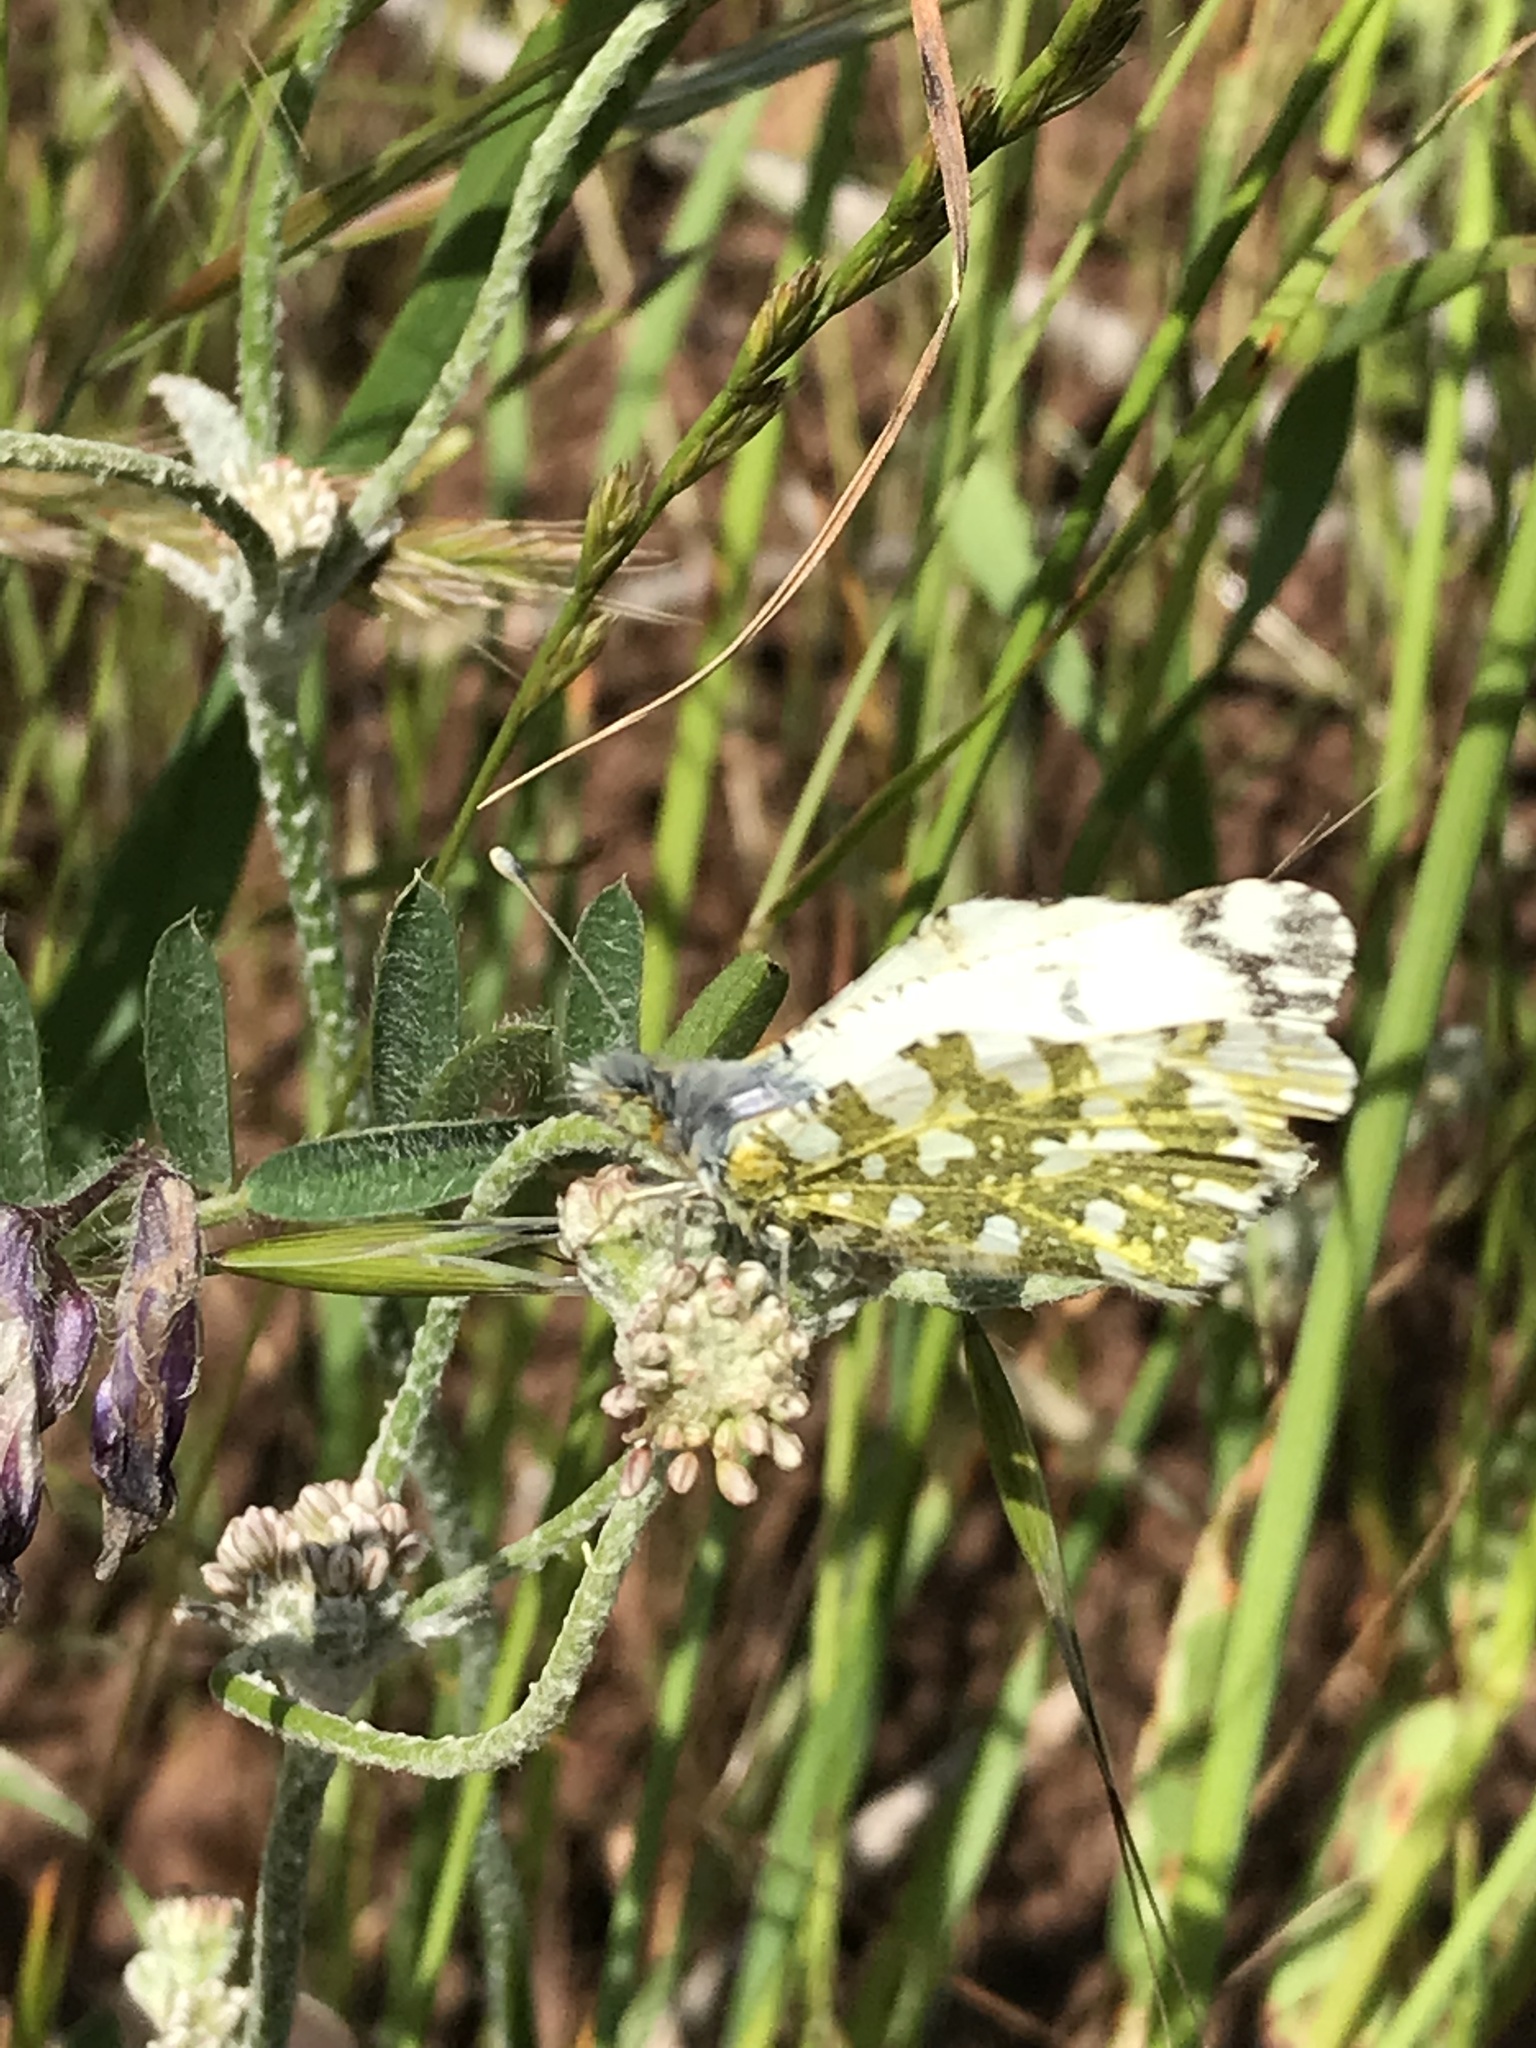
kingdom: Animalia
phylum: Arthropoda
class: Insecta
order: Lepidoptera
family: Pieridae
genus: Euchloe
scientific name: Euchloe ausonides
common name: Creamy marblewing
